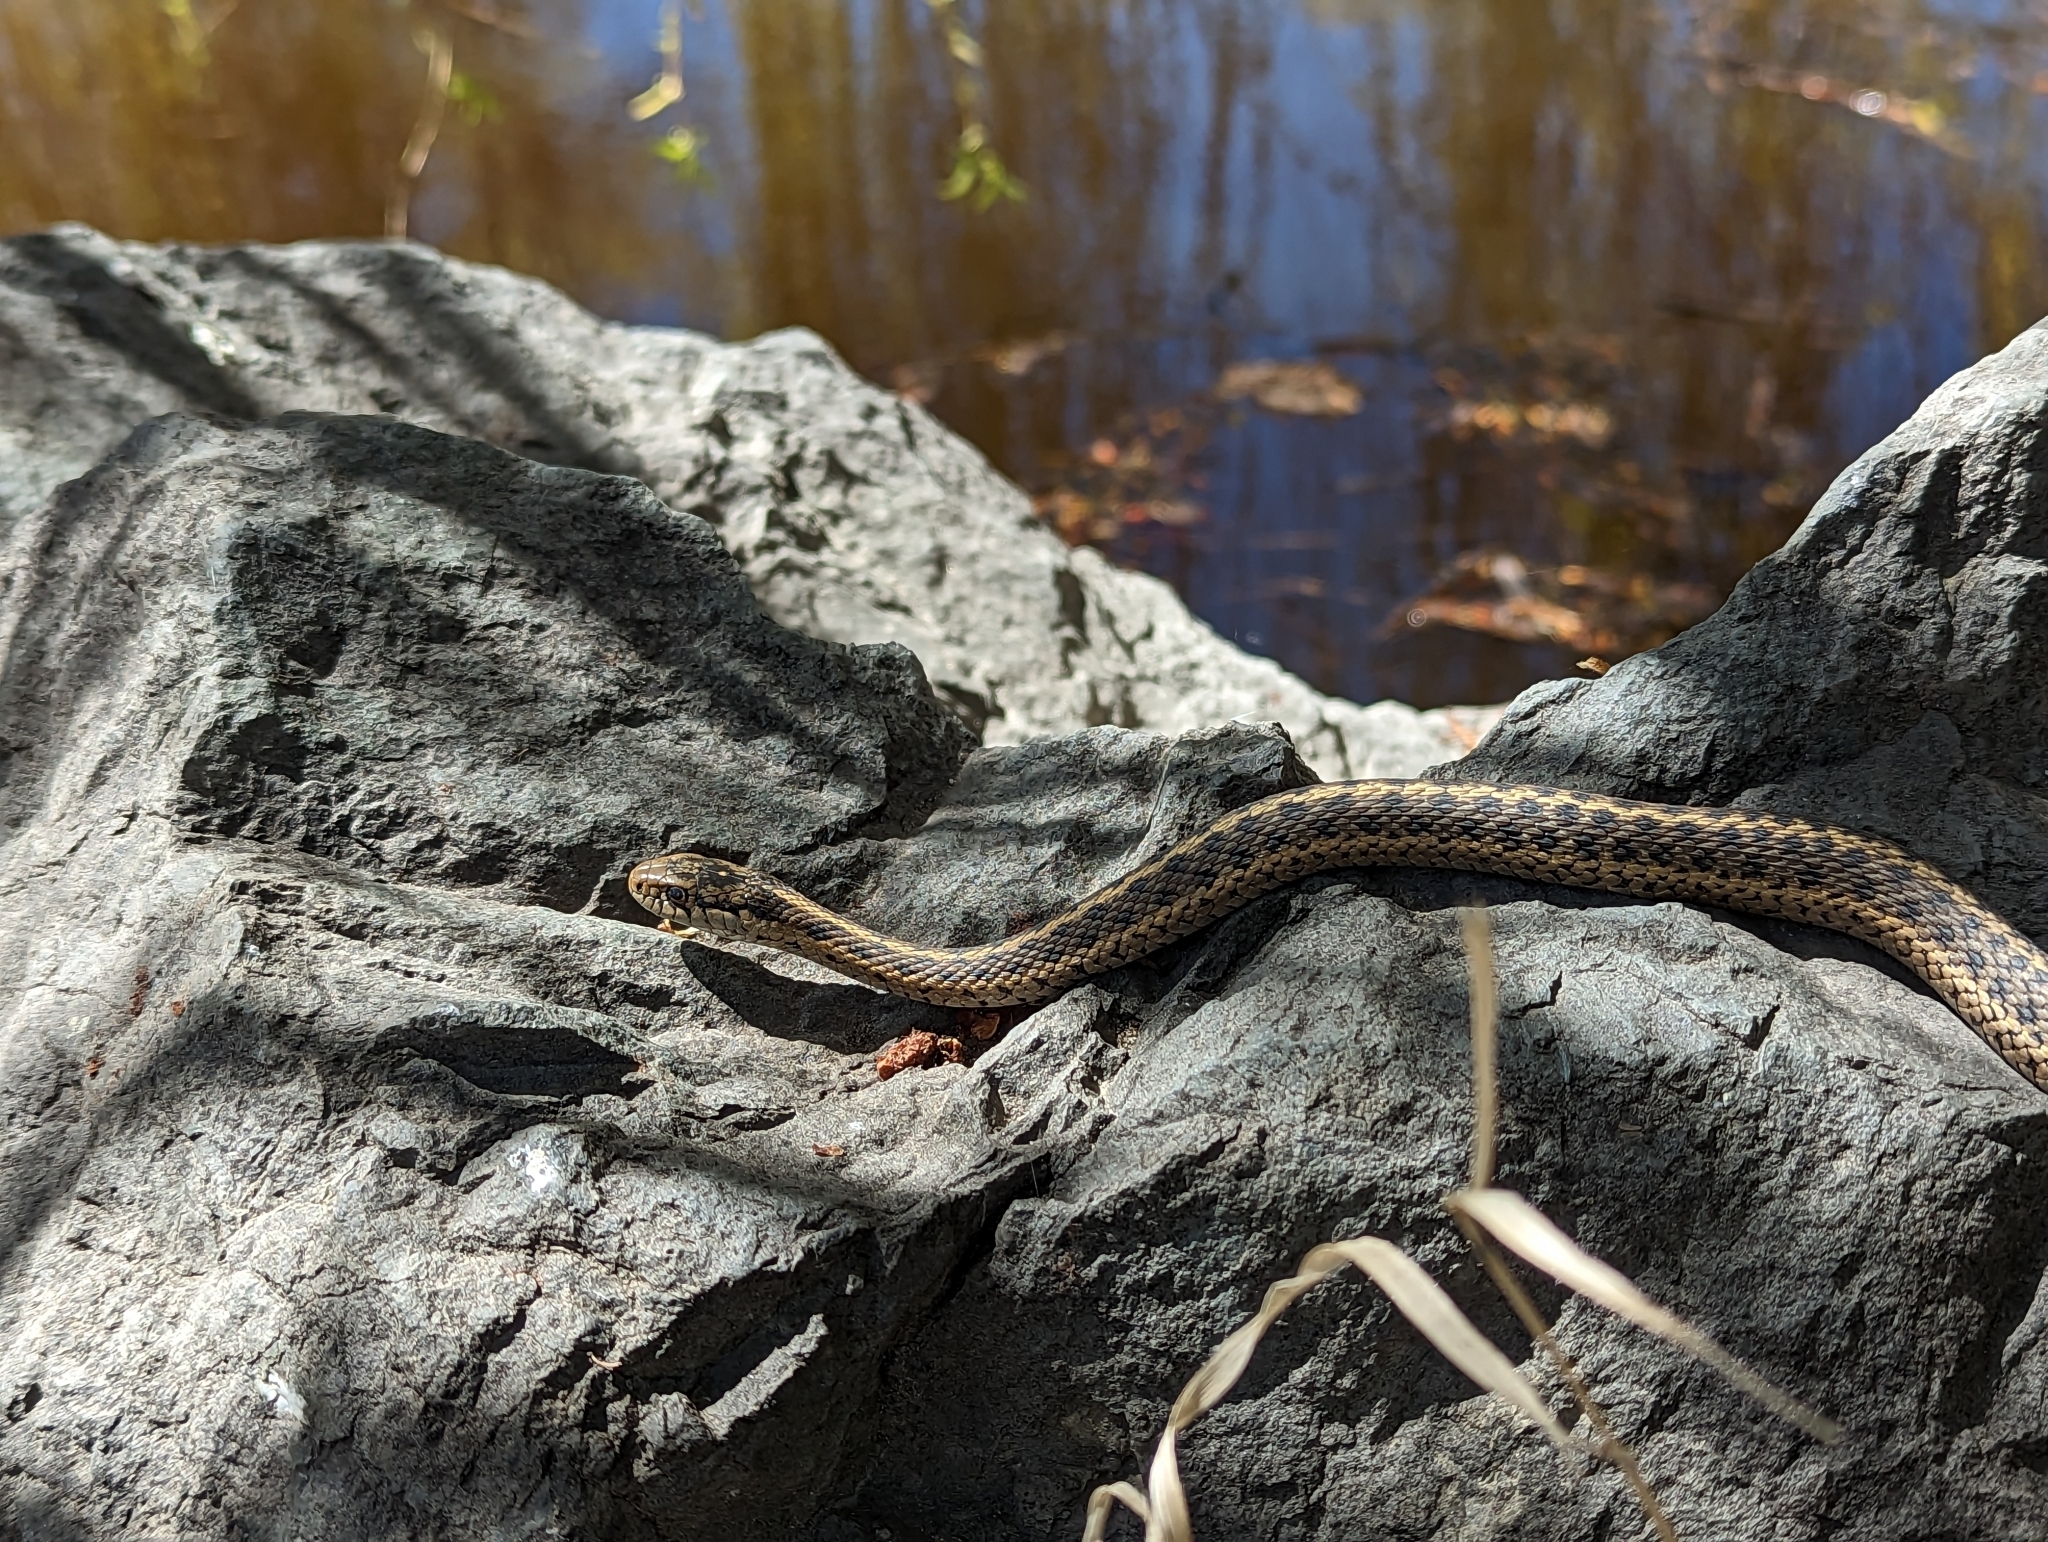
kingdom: Animalia
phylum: Chordata
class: Squamata
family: Colubridae
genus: Thamnophis
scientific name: Thamnophis elegans
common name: Western terrestrial garter snake
